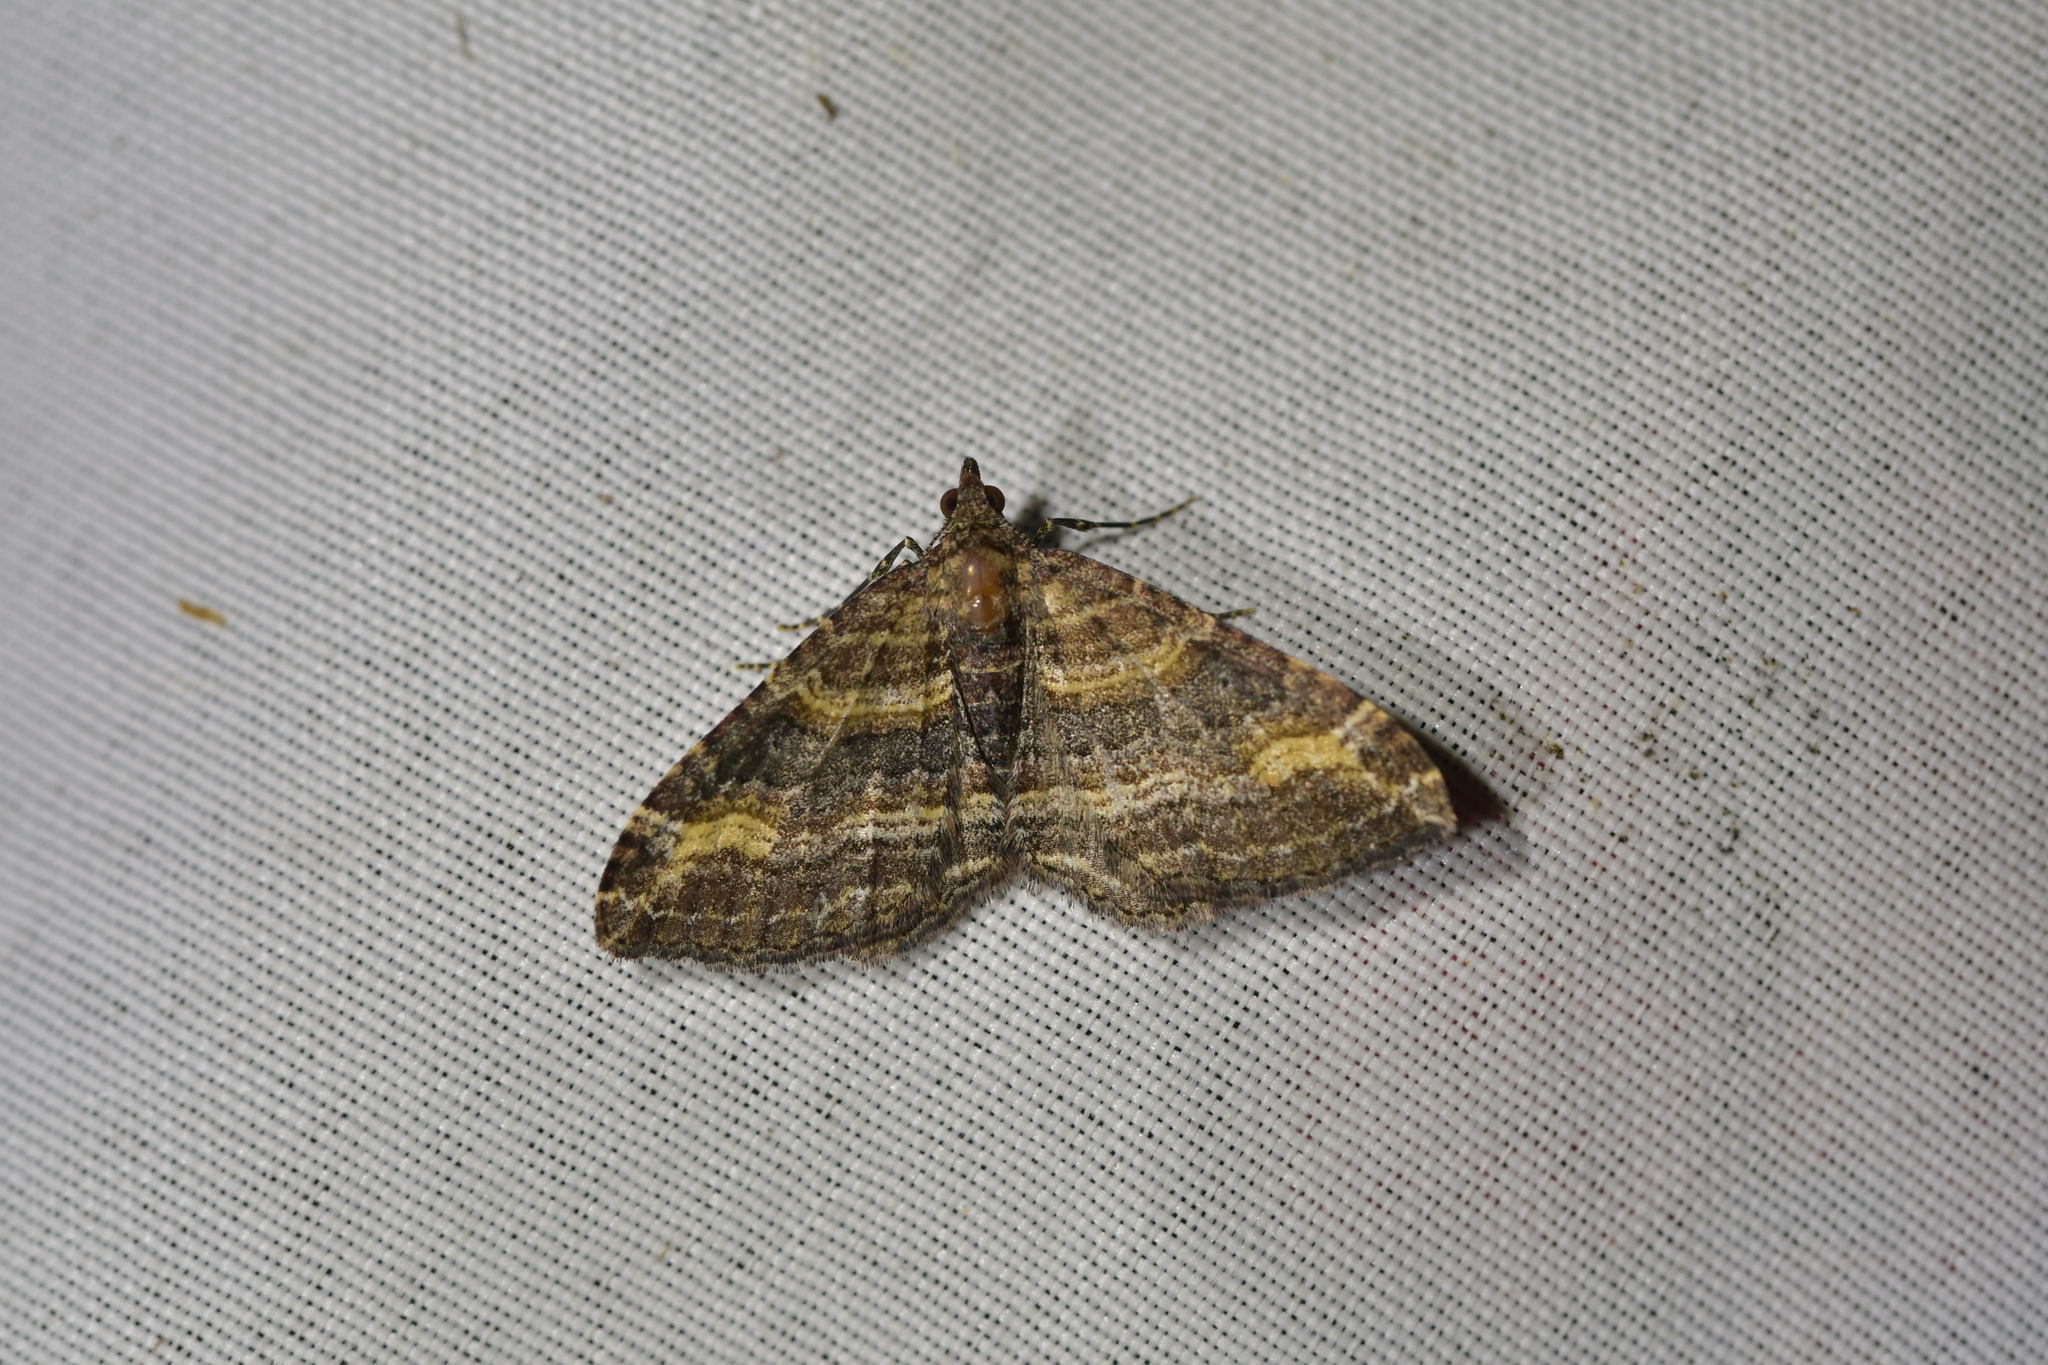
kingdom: Animalia
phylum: Arthropoda
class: Insecta
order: Lepidoptera
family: Geometridae
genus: Epyaxa
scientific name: Epyaxa lucidata
